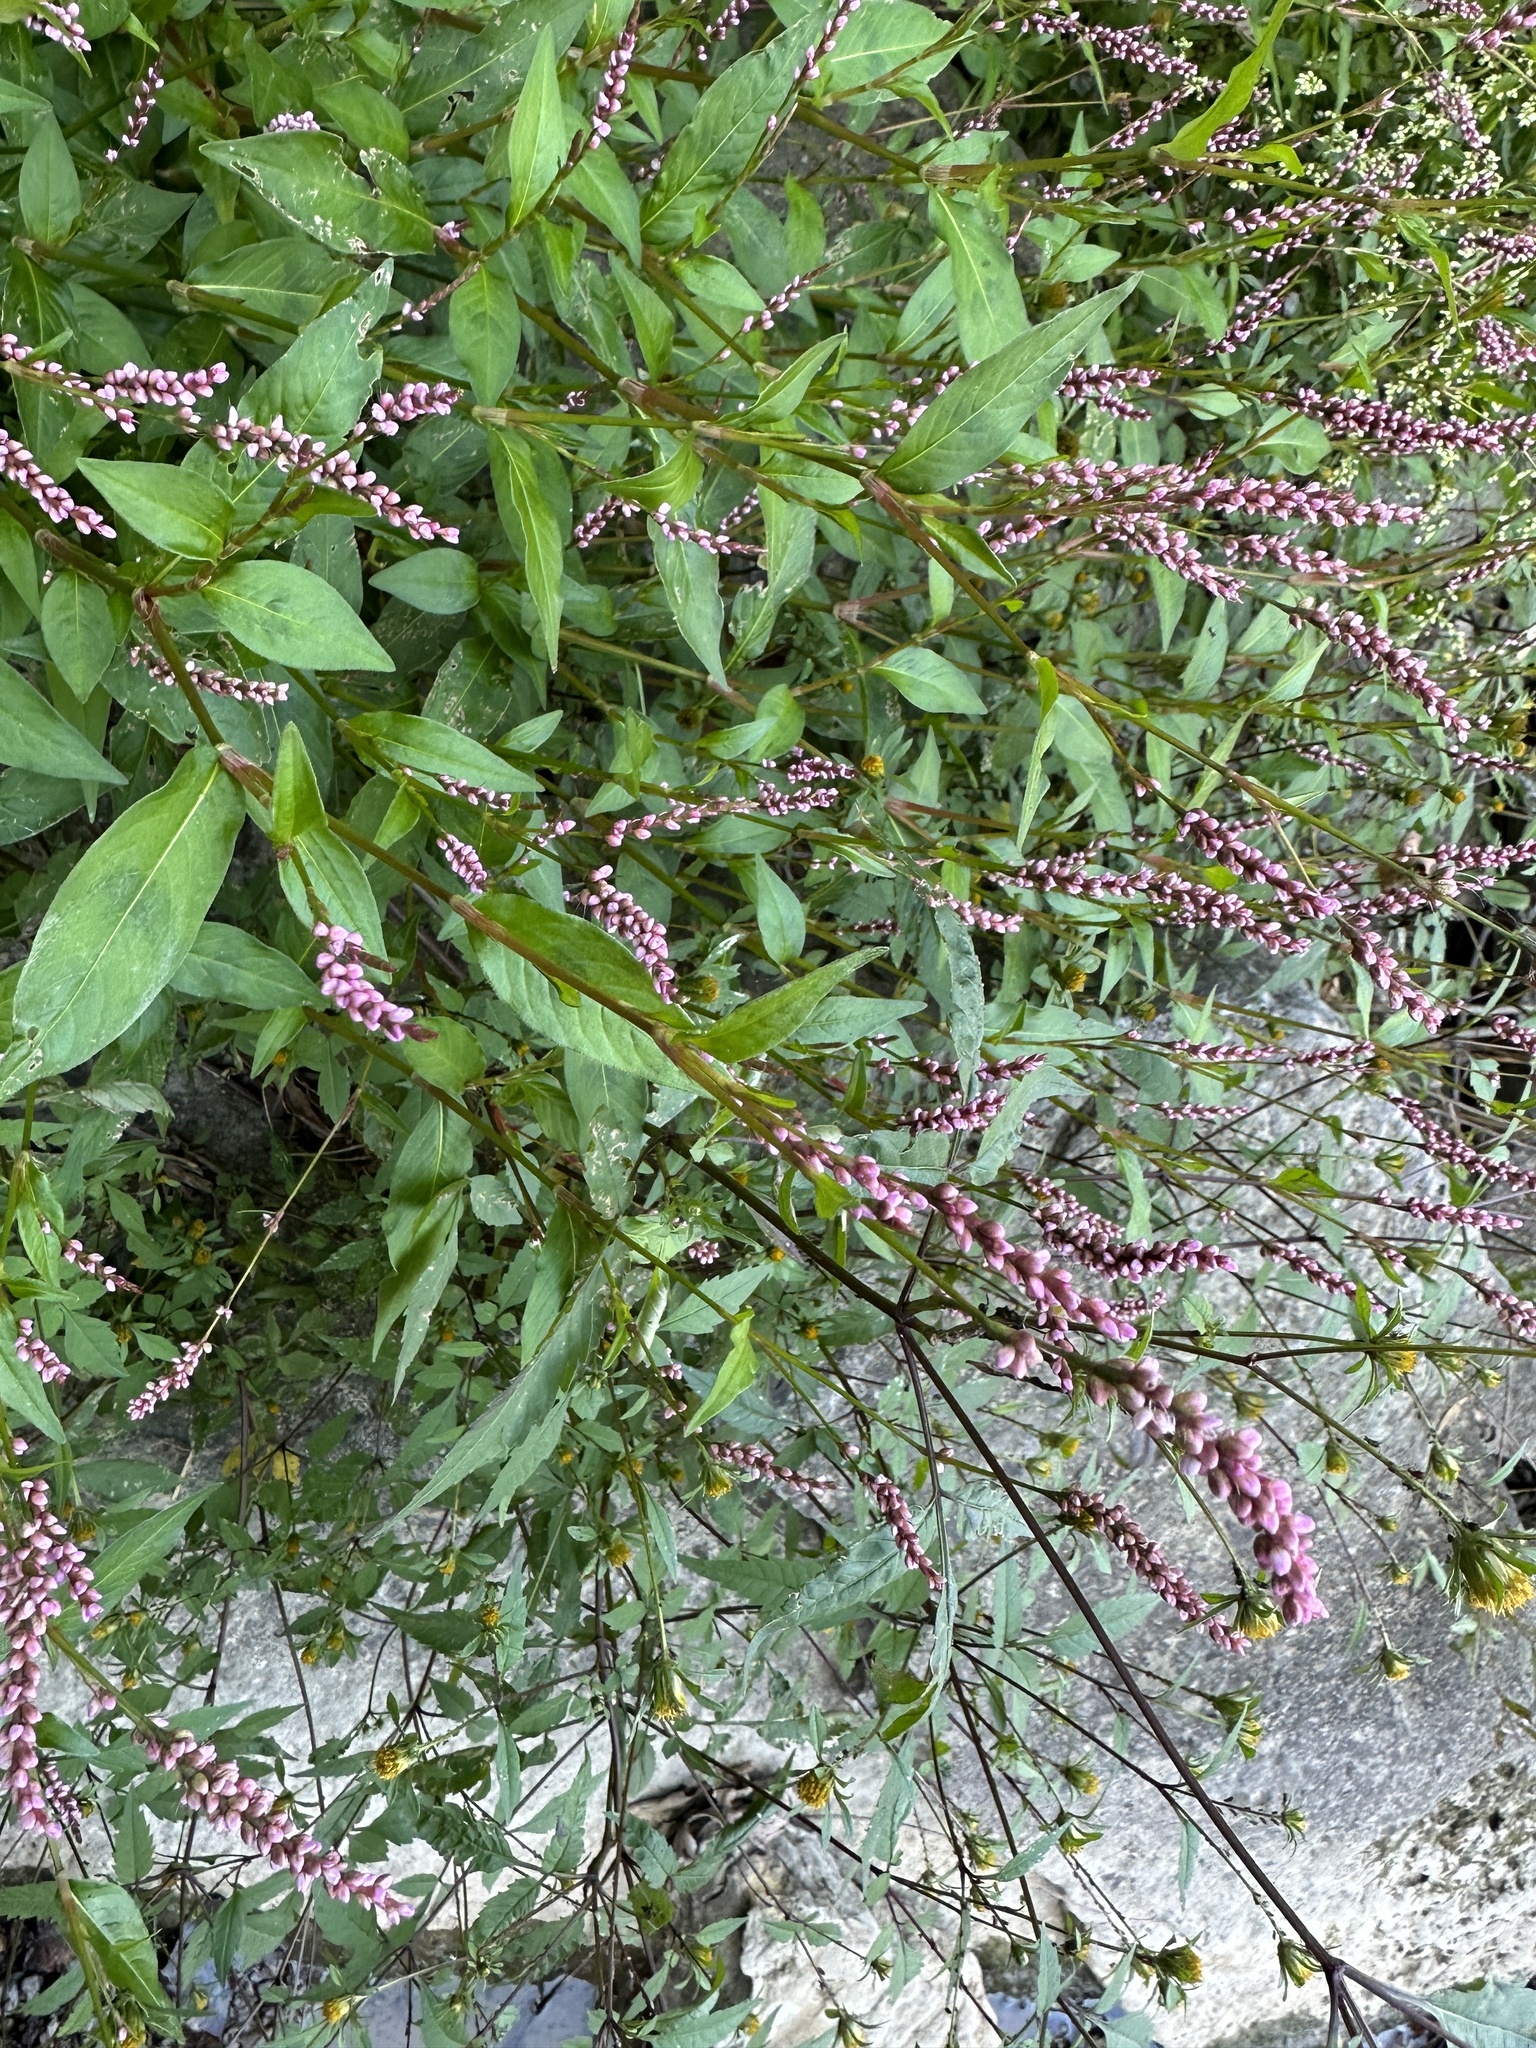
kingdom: Plantae
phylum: Tracheophyta
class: Magnoliopsida
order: Caryophyllales
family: Polygonaceae
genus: Persicaria
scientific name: Persicaria longiseta
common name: Bristly lady's-thumb
